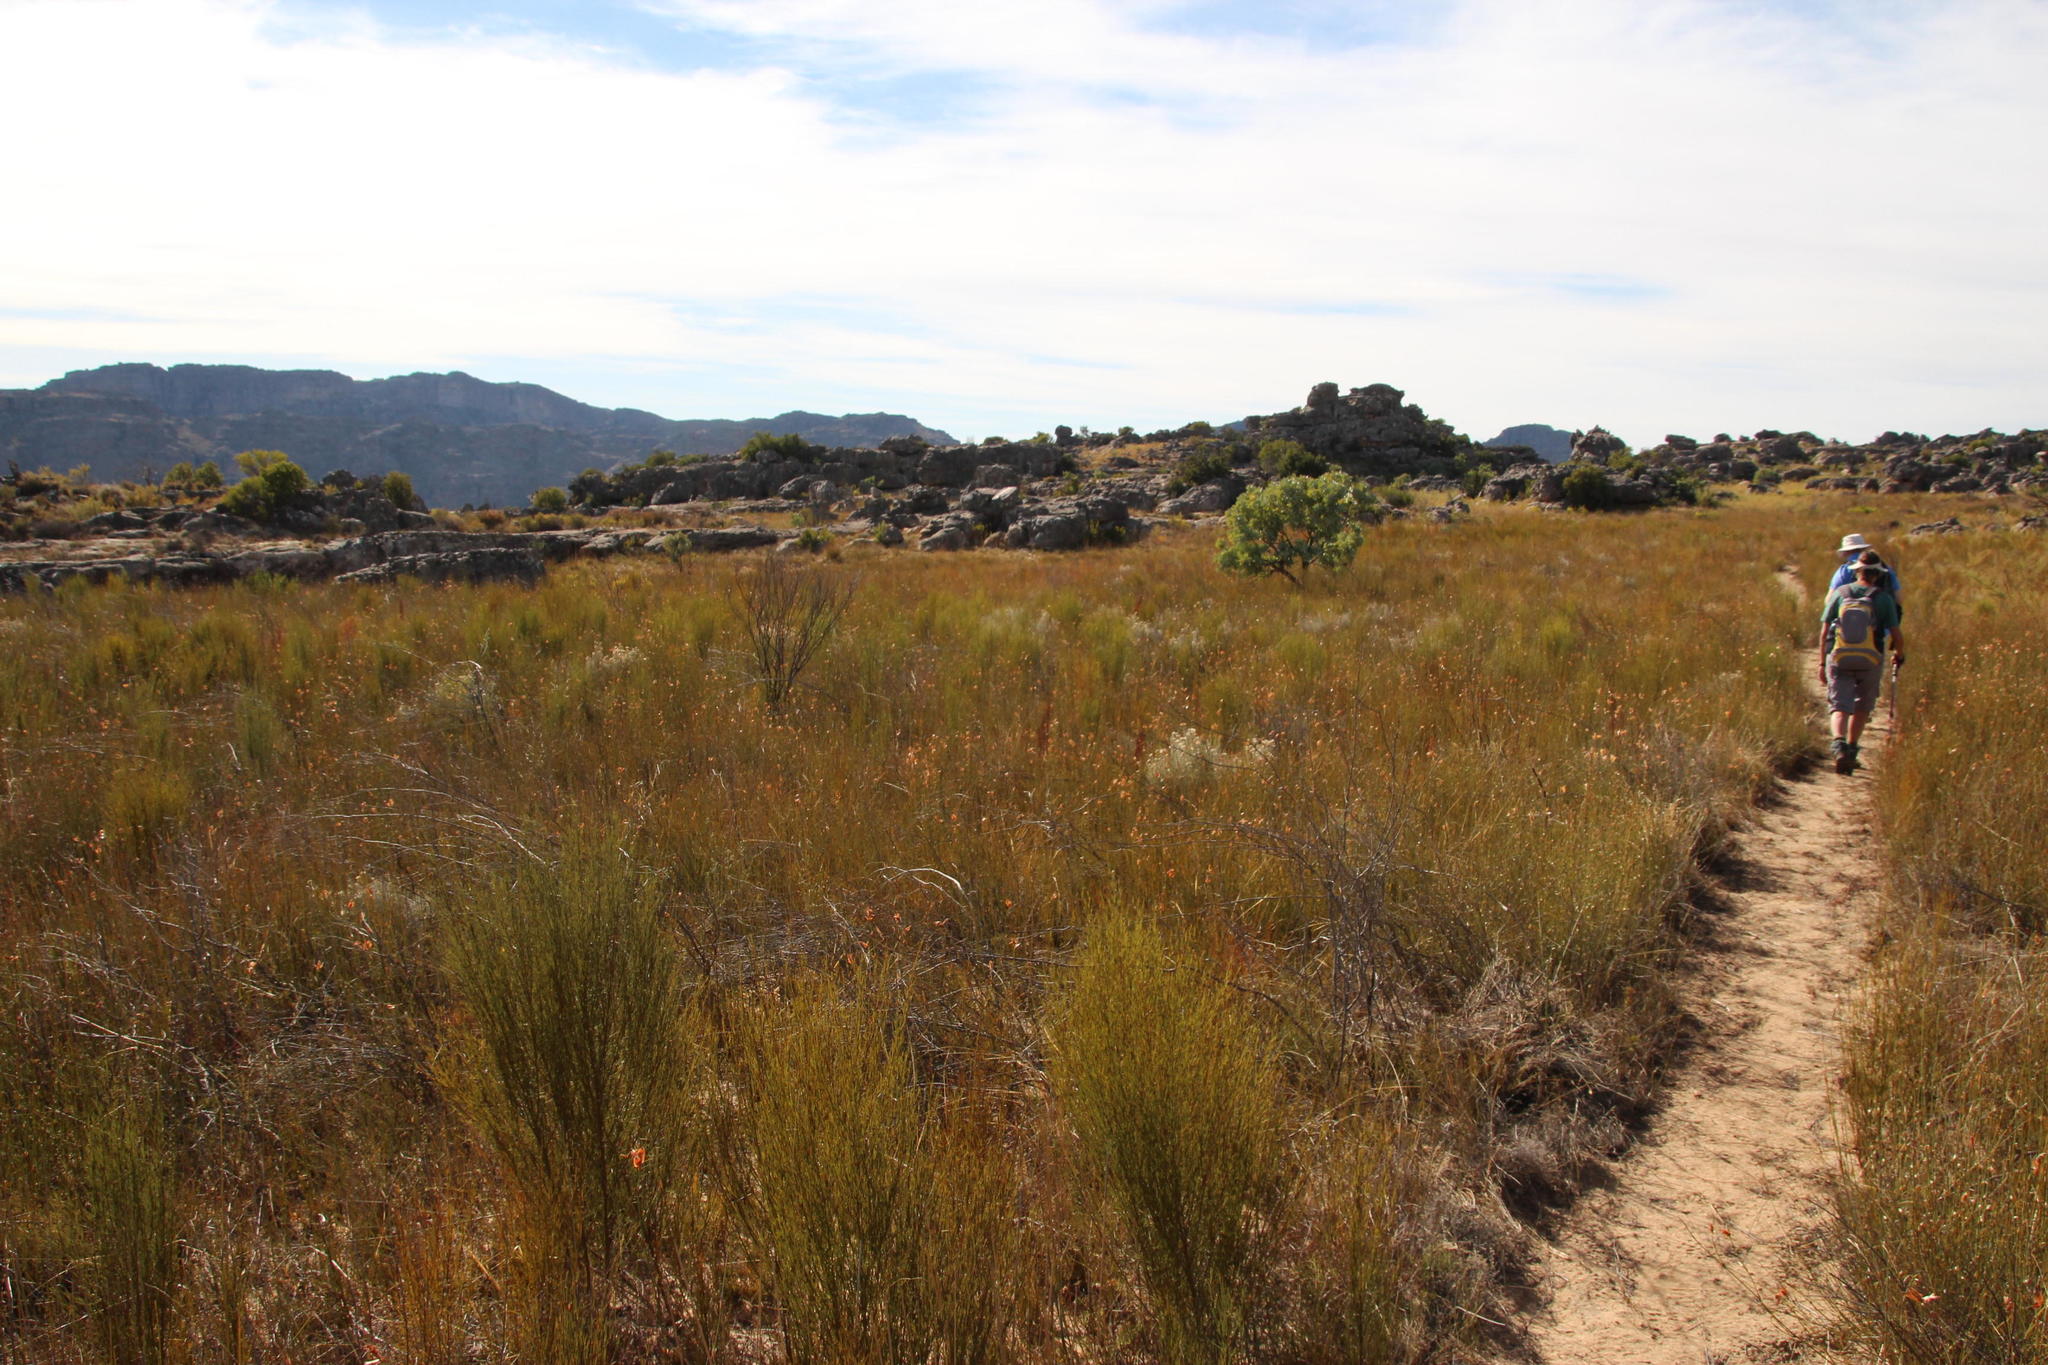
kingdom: Plantae
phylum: Tracheophyta
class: Magnoliopsida
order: Fabales
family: Fabaceae
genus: Aspalathus
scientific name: Aspalathus linearis
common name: Rooibos-tea
